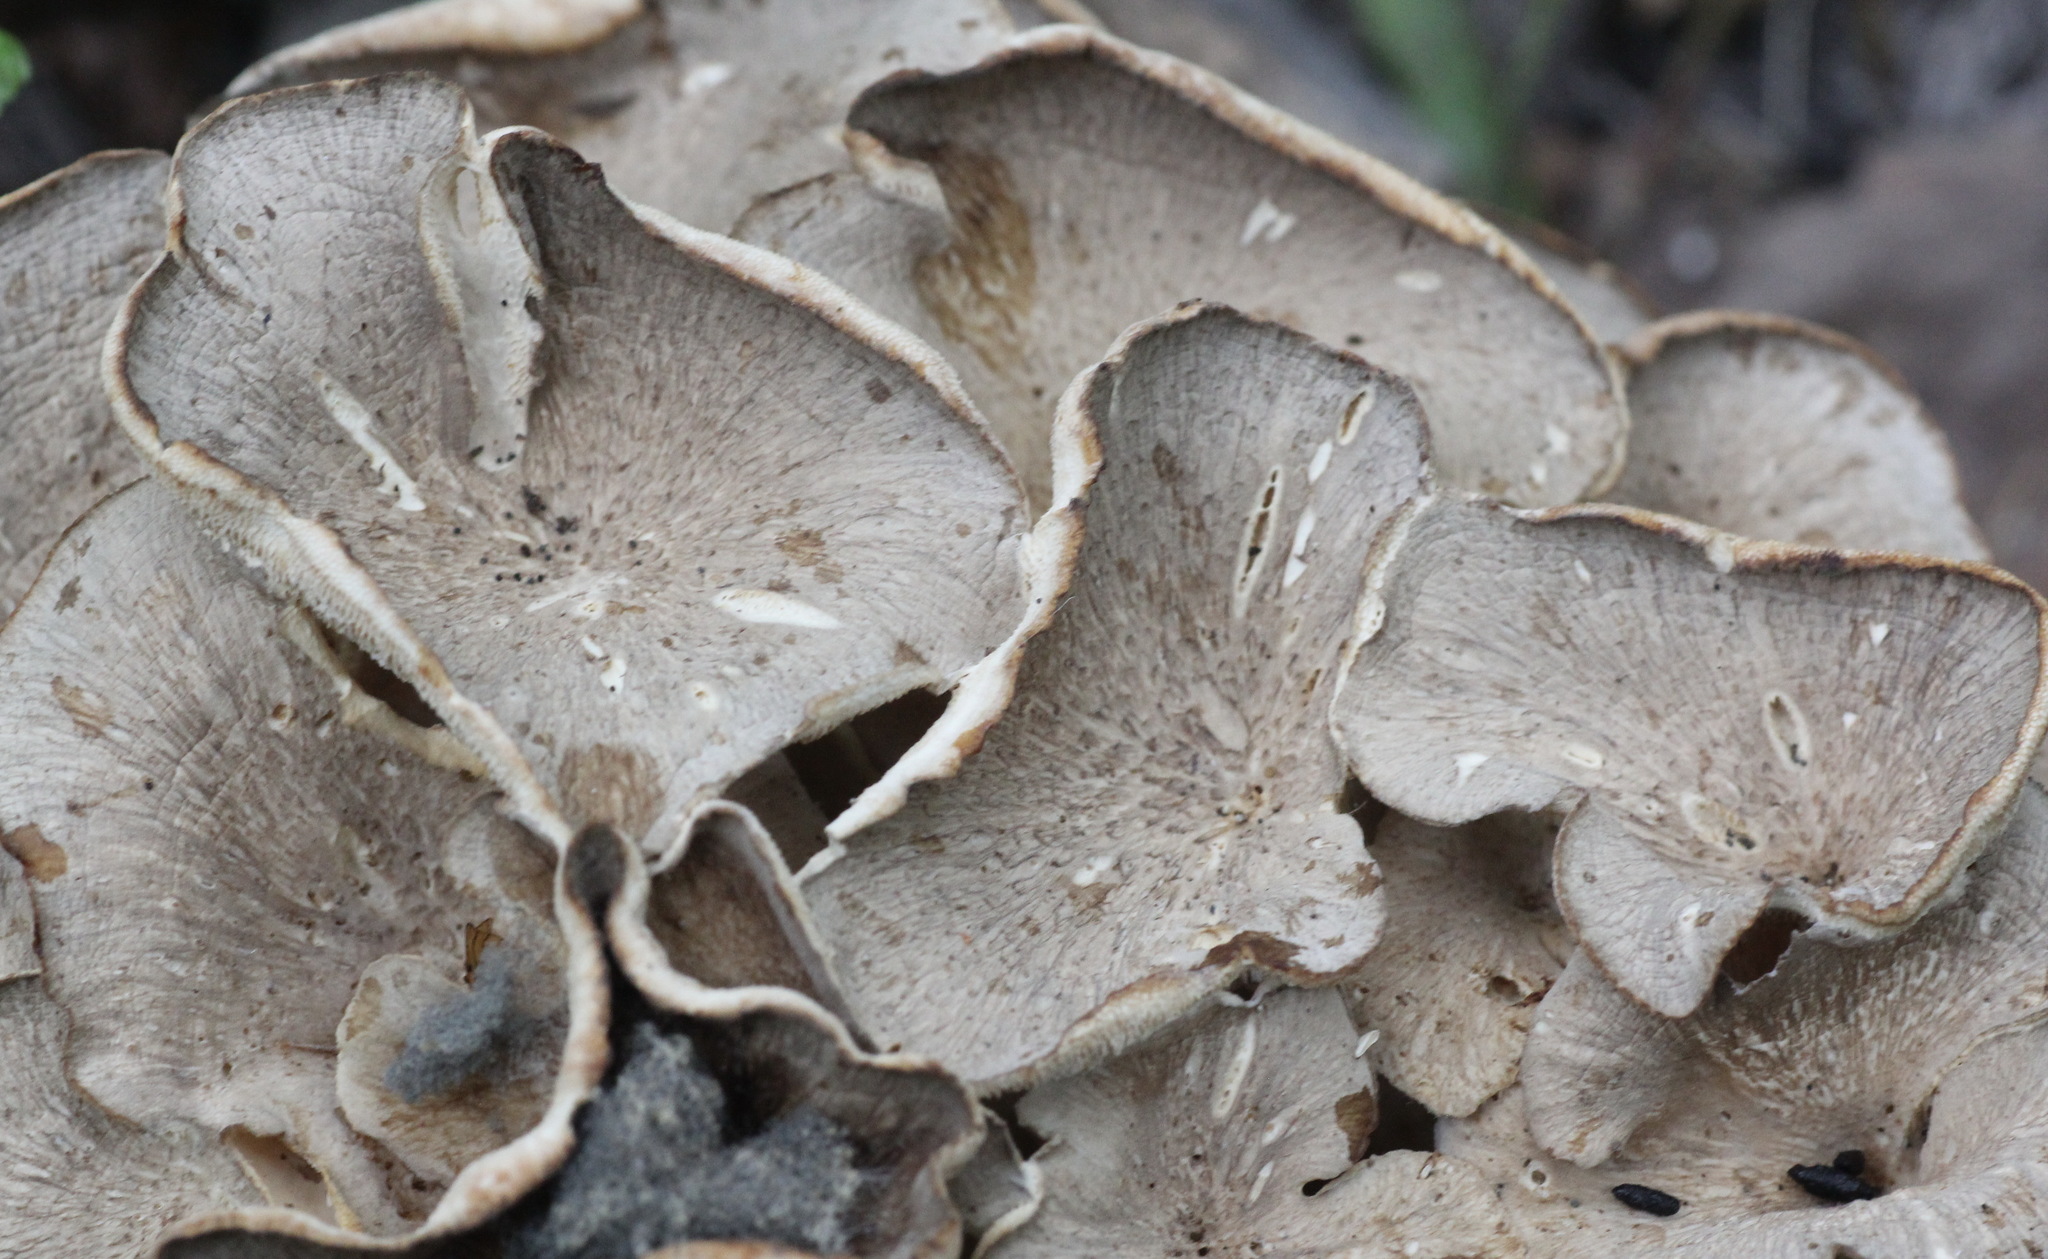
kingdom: Fungi
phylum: Basidiomycota
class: Agaricomycetes
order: Polyporales
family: Polyporaceae
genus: Polyporus
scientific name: Polyporus umbellatus
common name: Umbrella polypore
